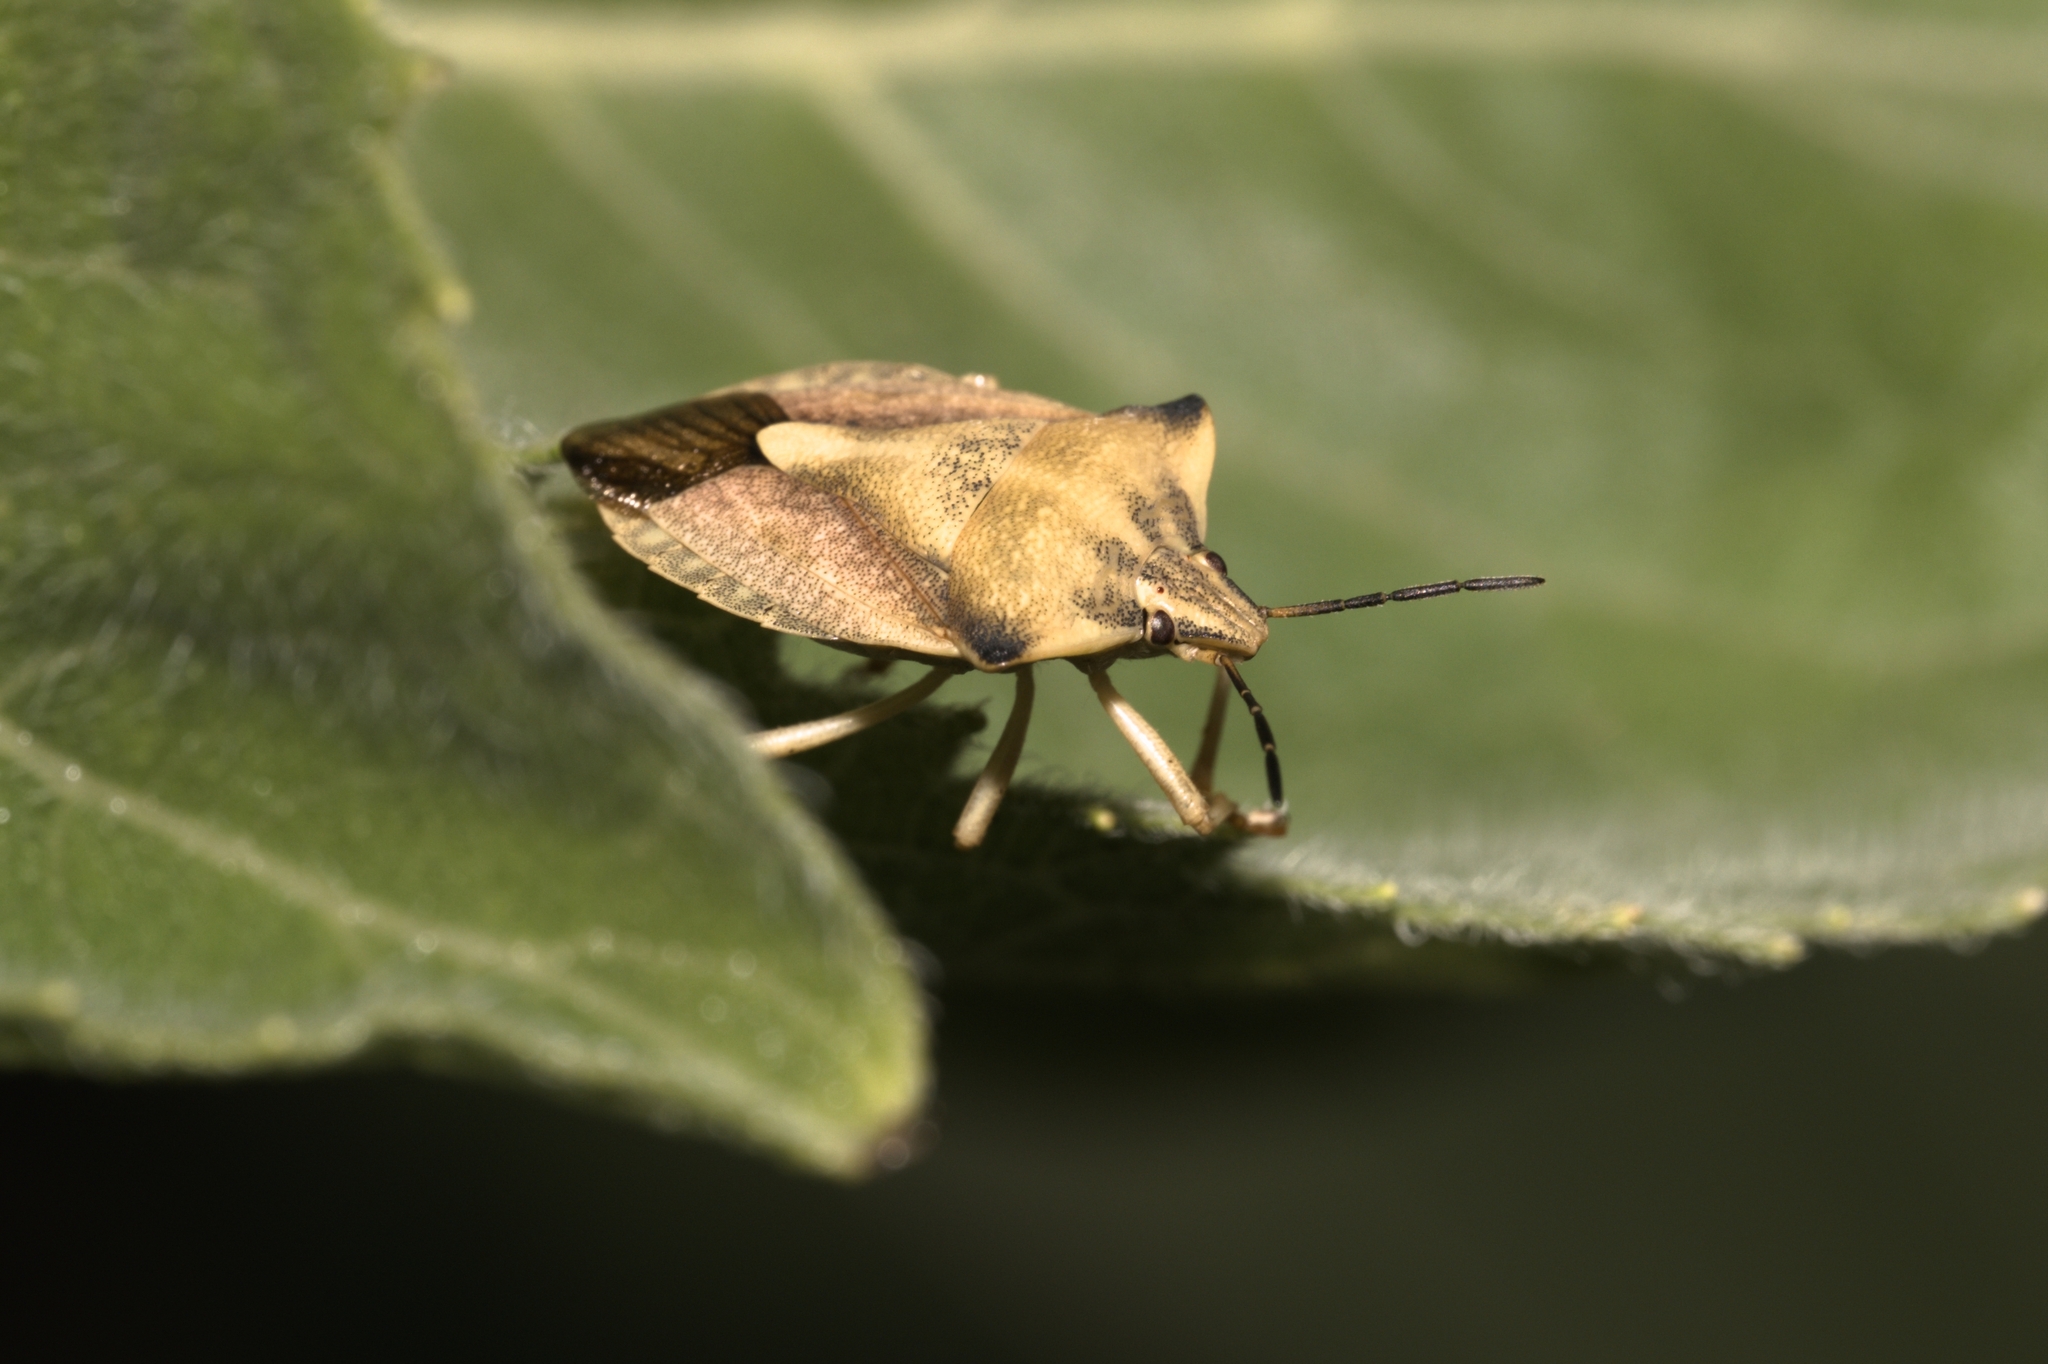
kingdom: Animalia
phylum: Arthropoda
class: Insecta
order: Hemiptera
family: Pentatomidae
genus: Carpocoris
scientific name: Carpocoris fuscispinus
